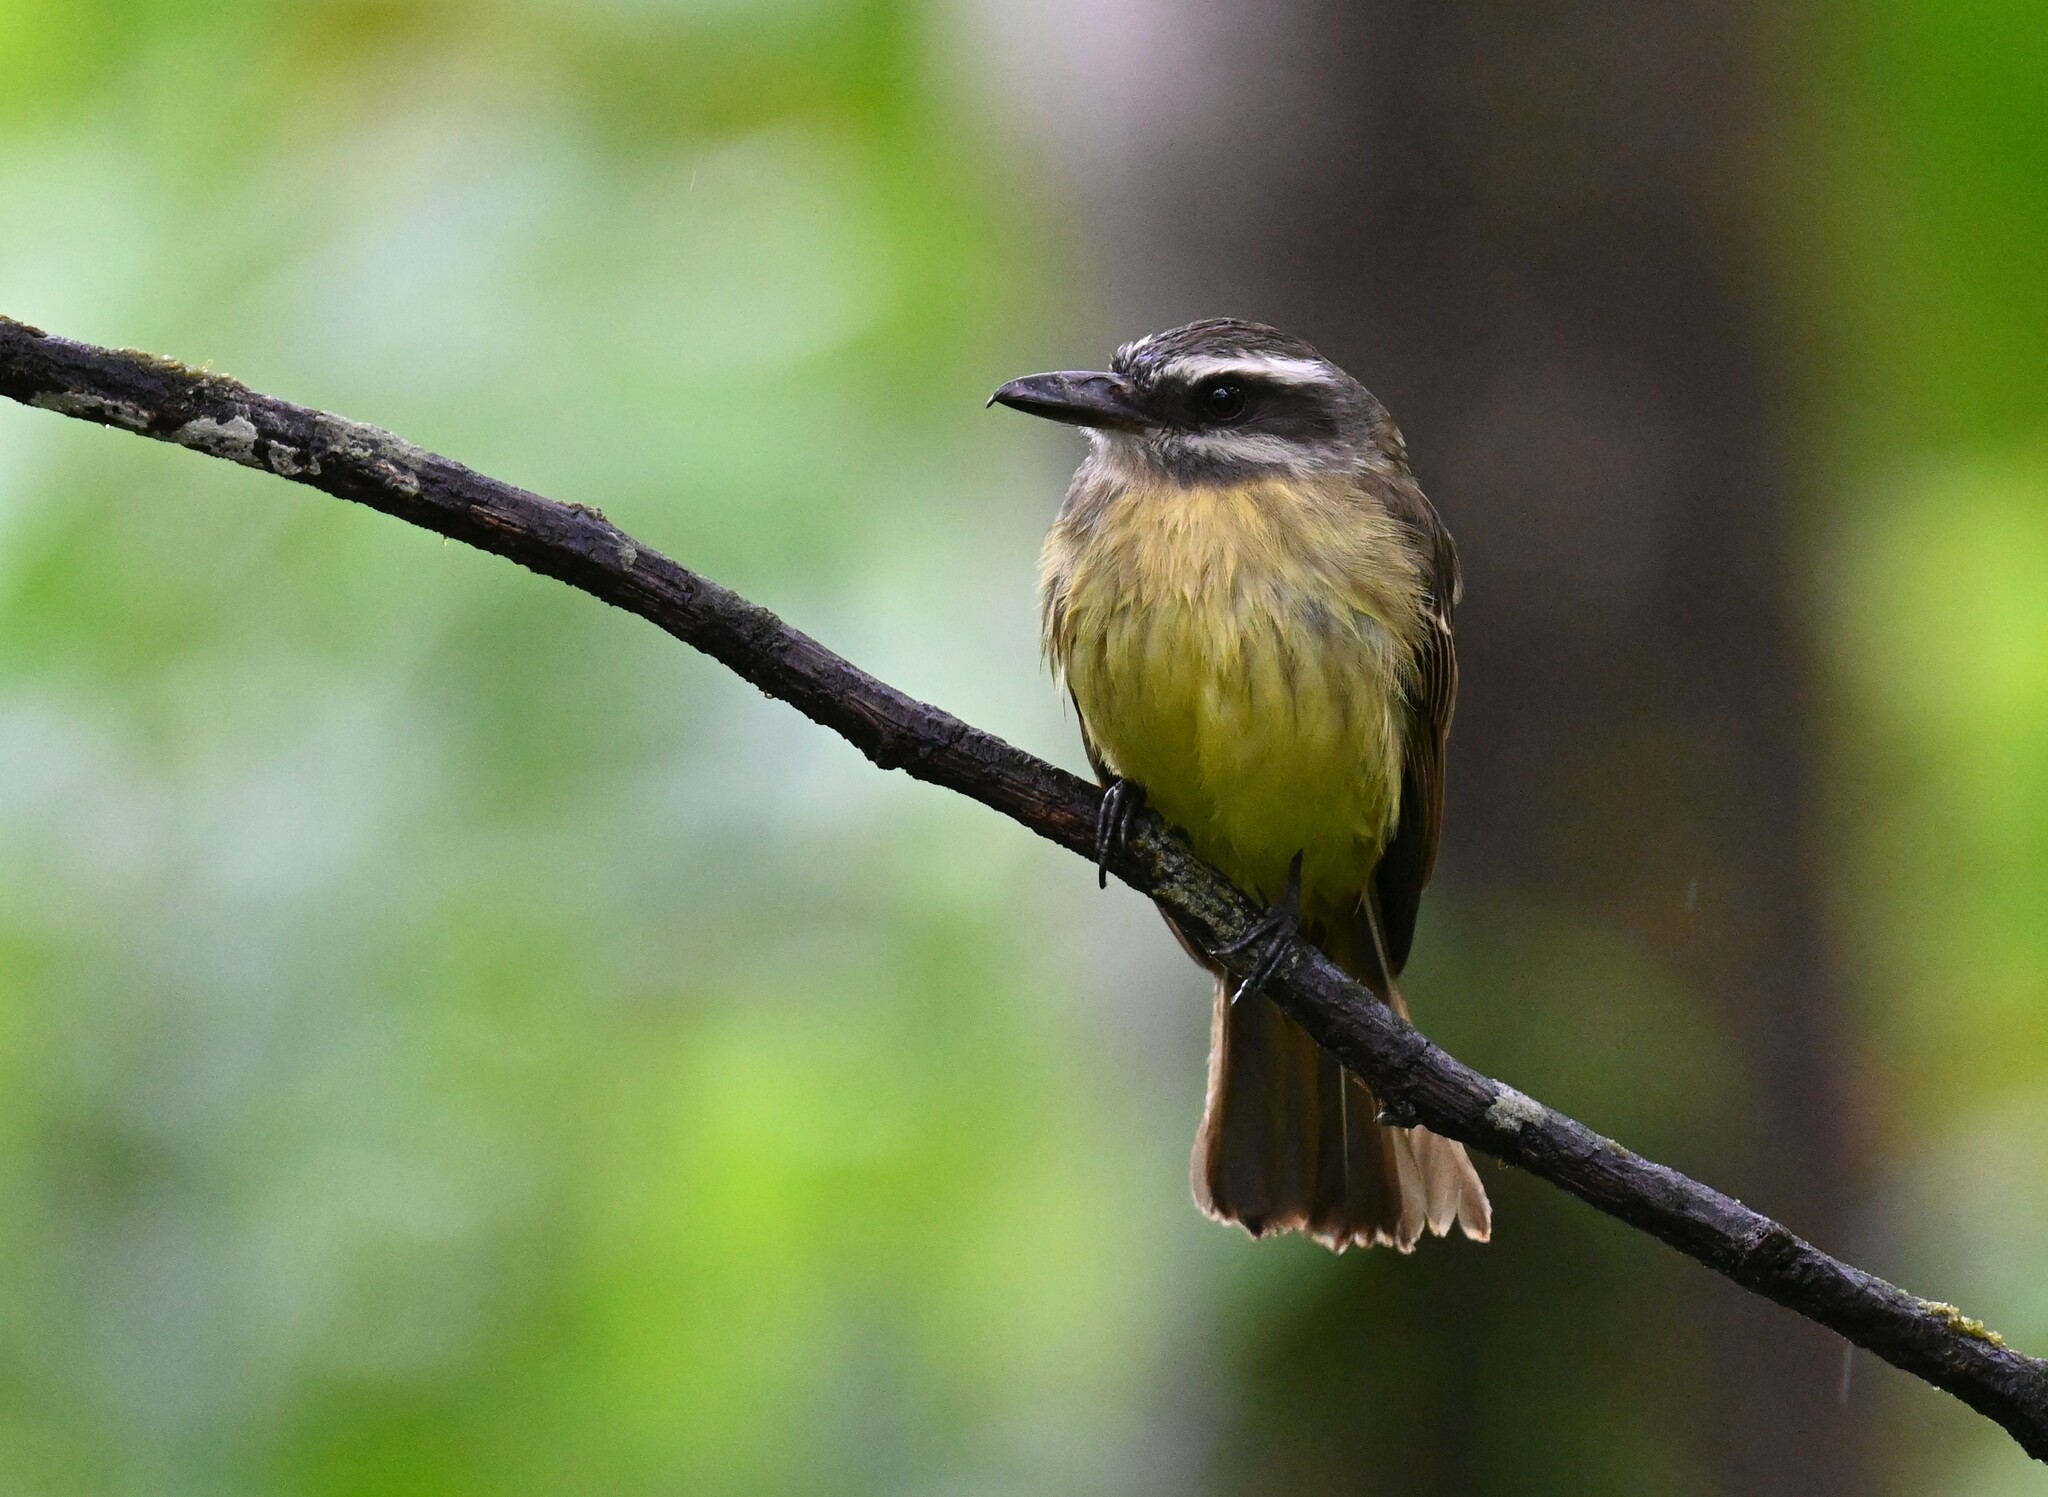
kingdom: Animalia
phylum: Chordata
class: Aves
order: Passeriformes
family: Tyrannidae
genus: Myiodynastes
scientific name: Myiodynastes hemichrysus
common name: Golden-bellied flycatcher
